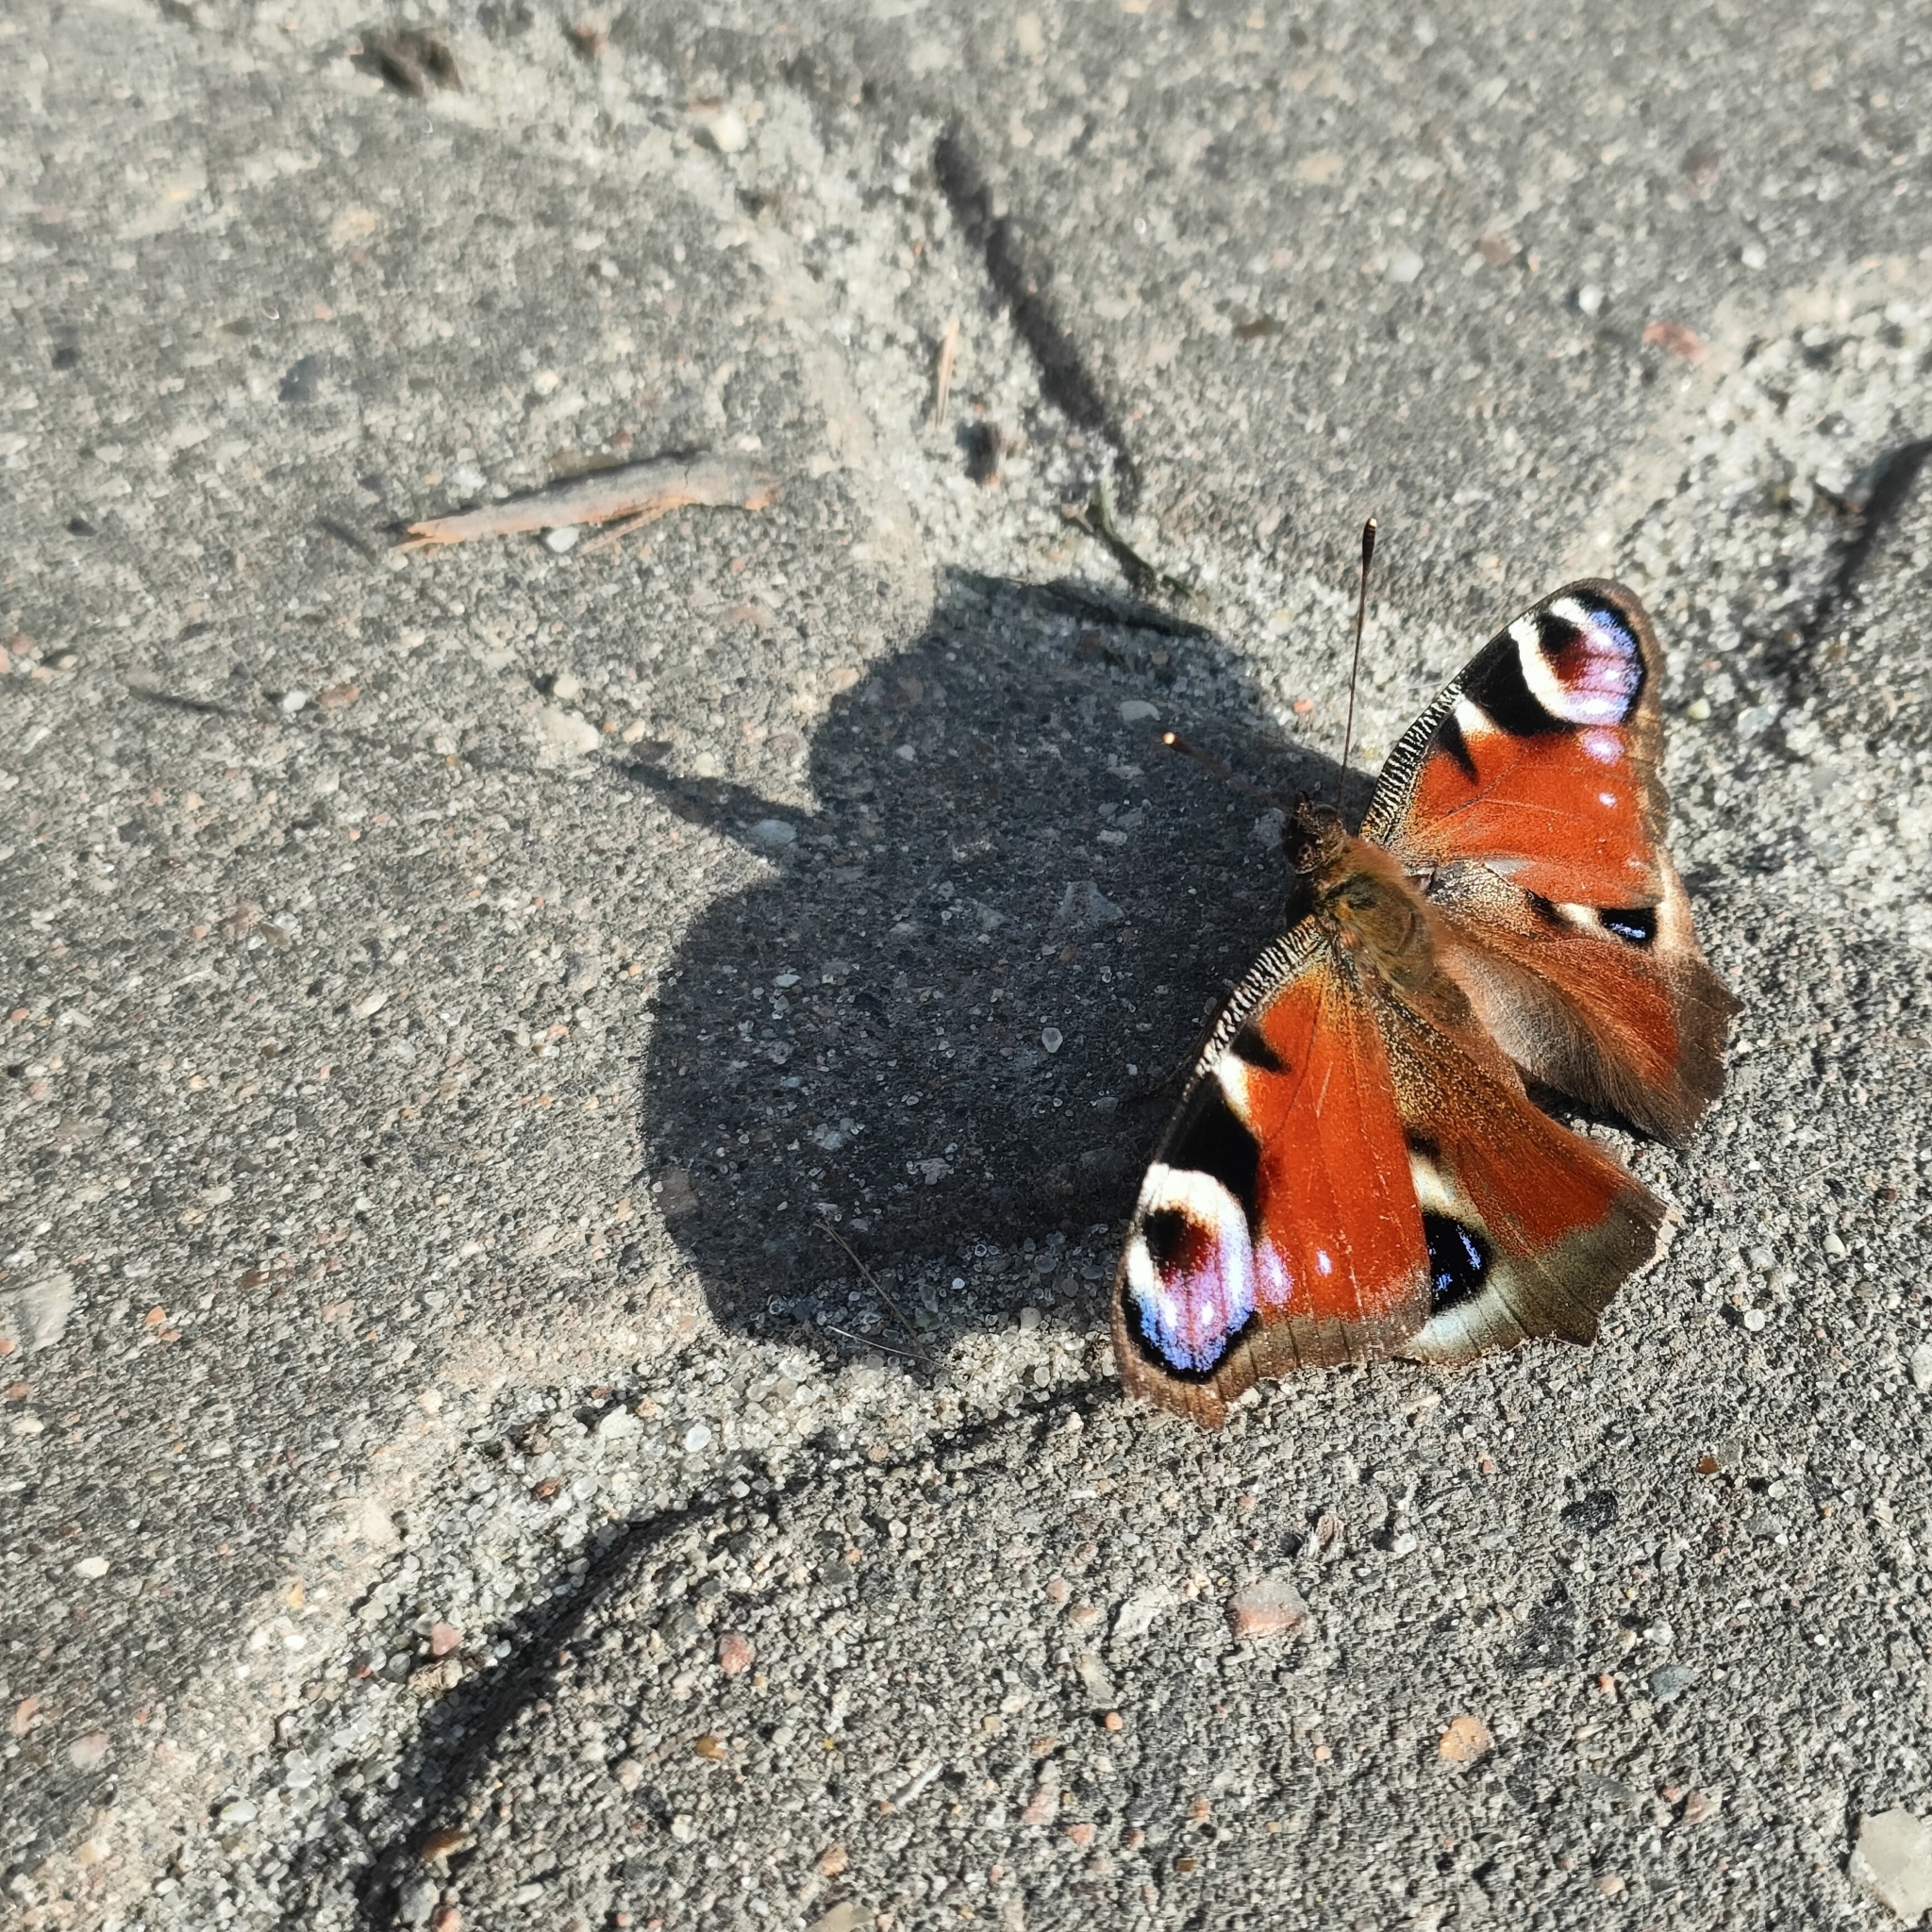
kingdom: Animalia
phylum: Arthropoda
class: Insecta
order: Lepidoptera
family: Nymphalidae
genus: Aglais
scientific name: Aglais io
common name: Peacock
